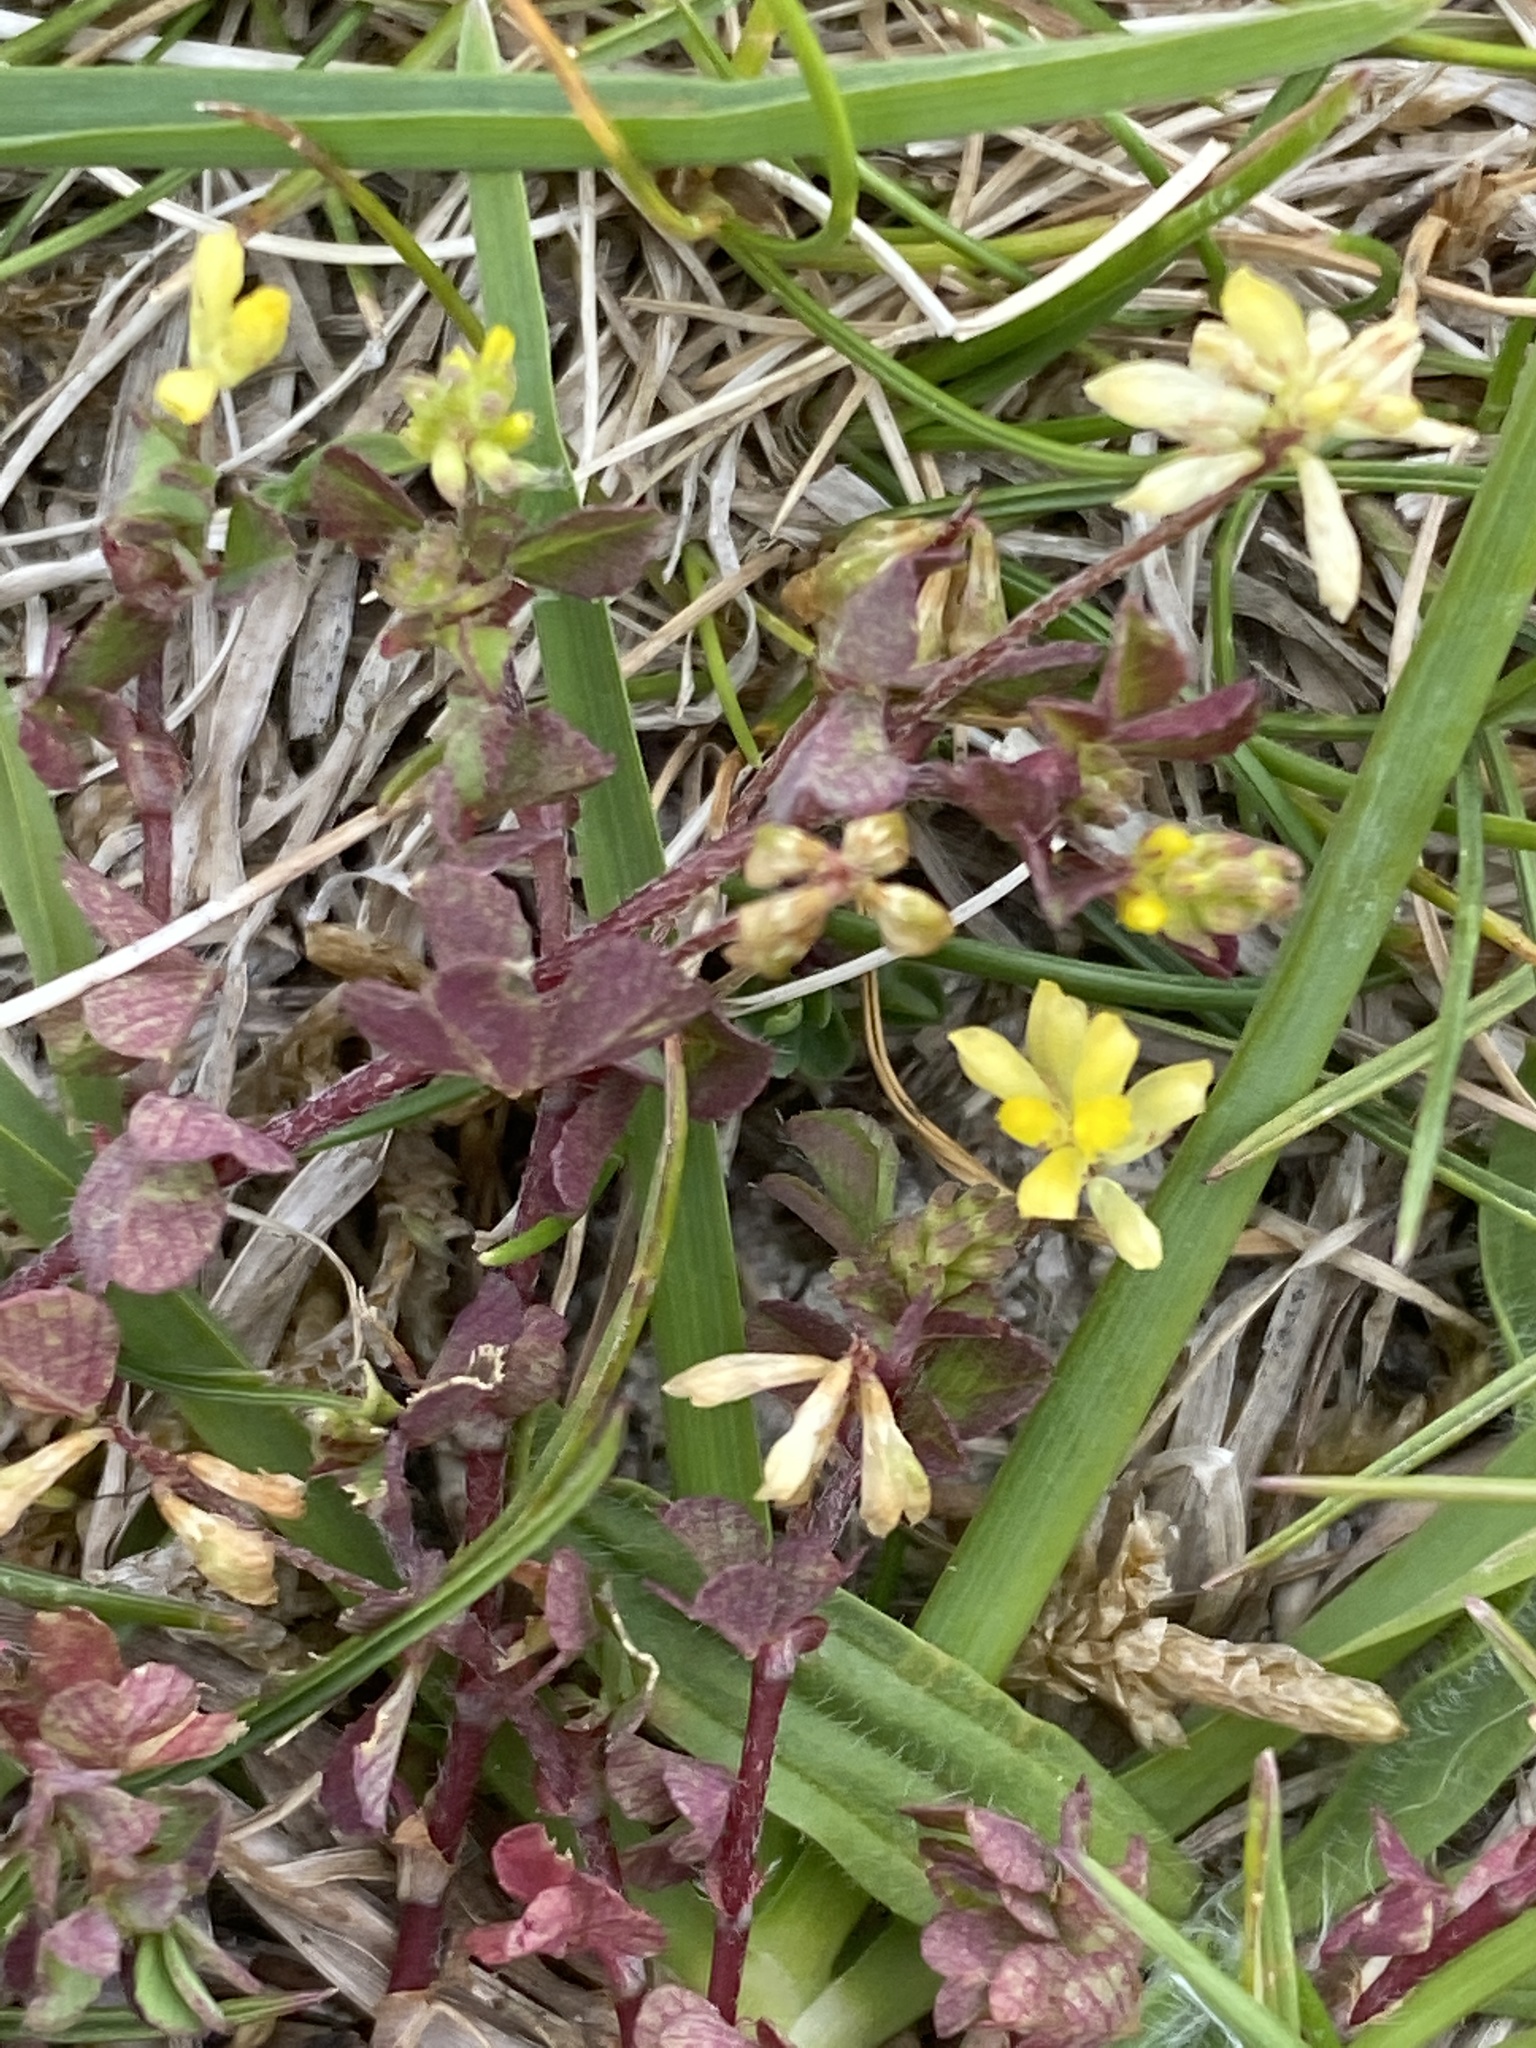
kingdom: Plantae
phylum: Tracheophyta
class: Magnoliopsida
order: Fabales
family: Fabaceae
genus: Trifolium
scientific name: Trifolium dubium
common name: Suckling clover
